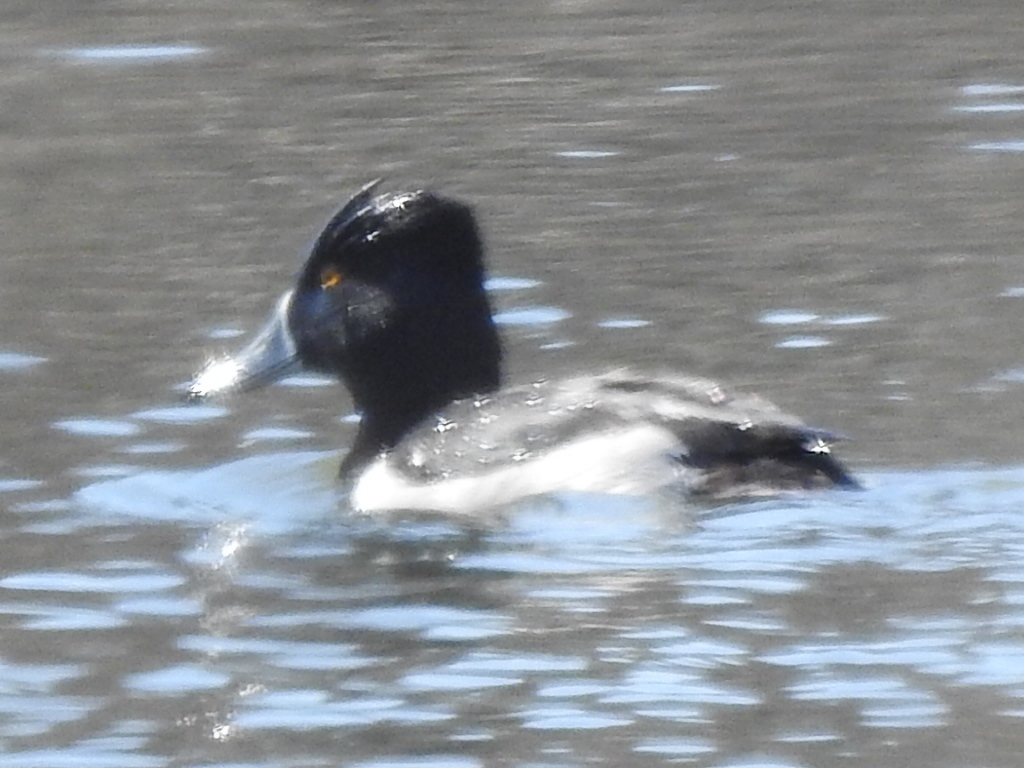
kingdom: Animalia
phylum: Chordata
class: Aves
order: Anseriformes
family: Anatidae
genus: Aythya
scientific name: Aythya collaris
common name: Ring-necked duck
